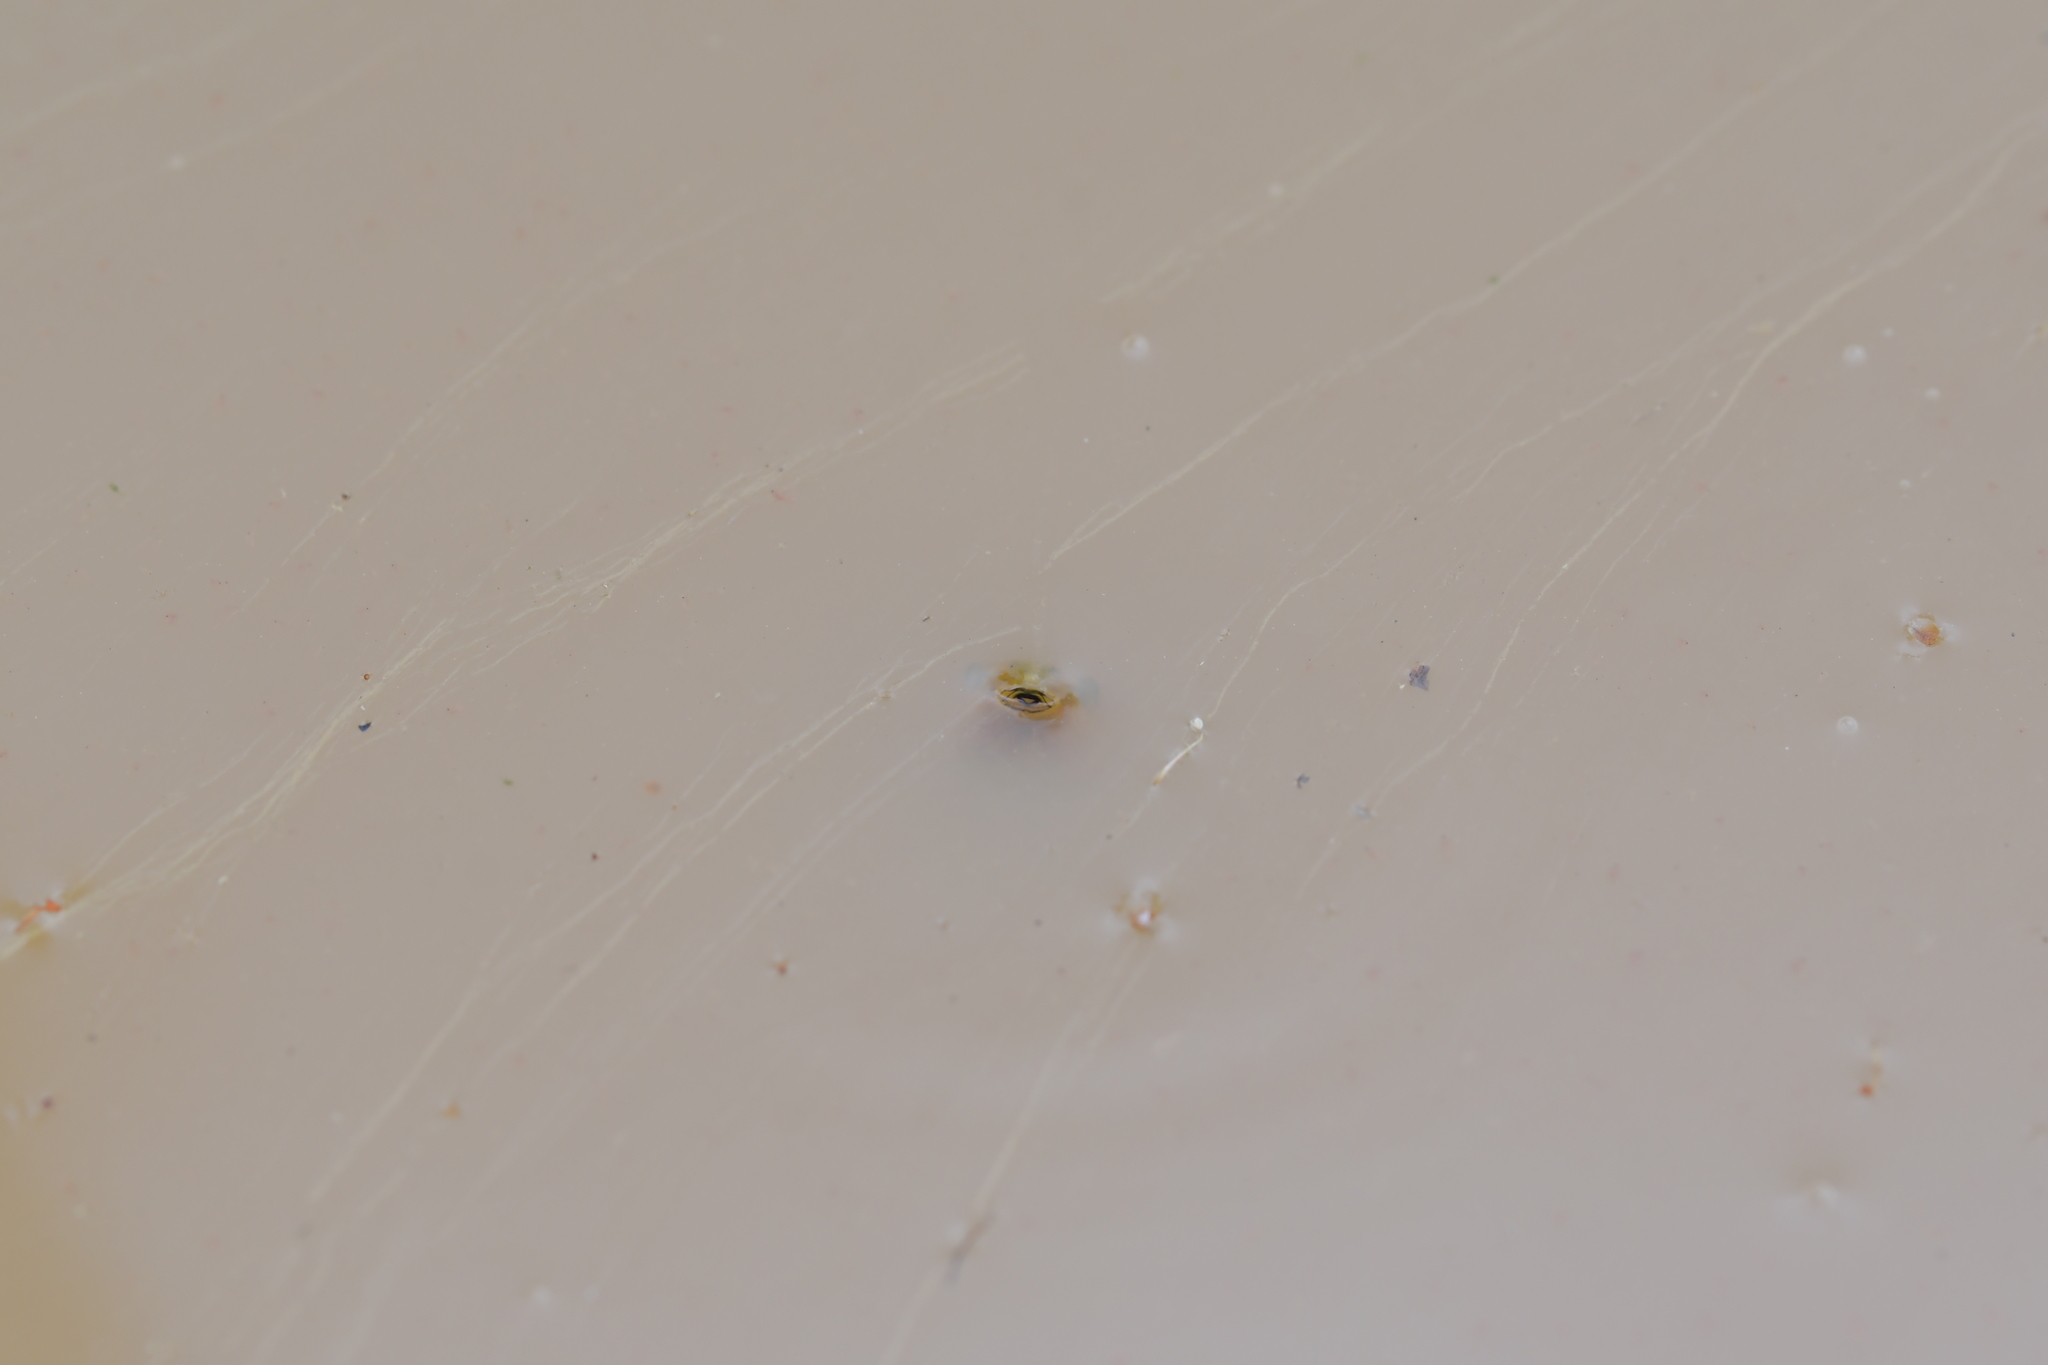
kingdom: Animalia
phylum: Chordata
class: Amphibia
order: Anura
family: Pelodryadidae
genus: Litoria
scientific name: Litoria ewingii
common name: Southern brown tree frog
